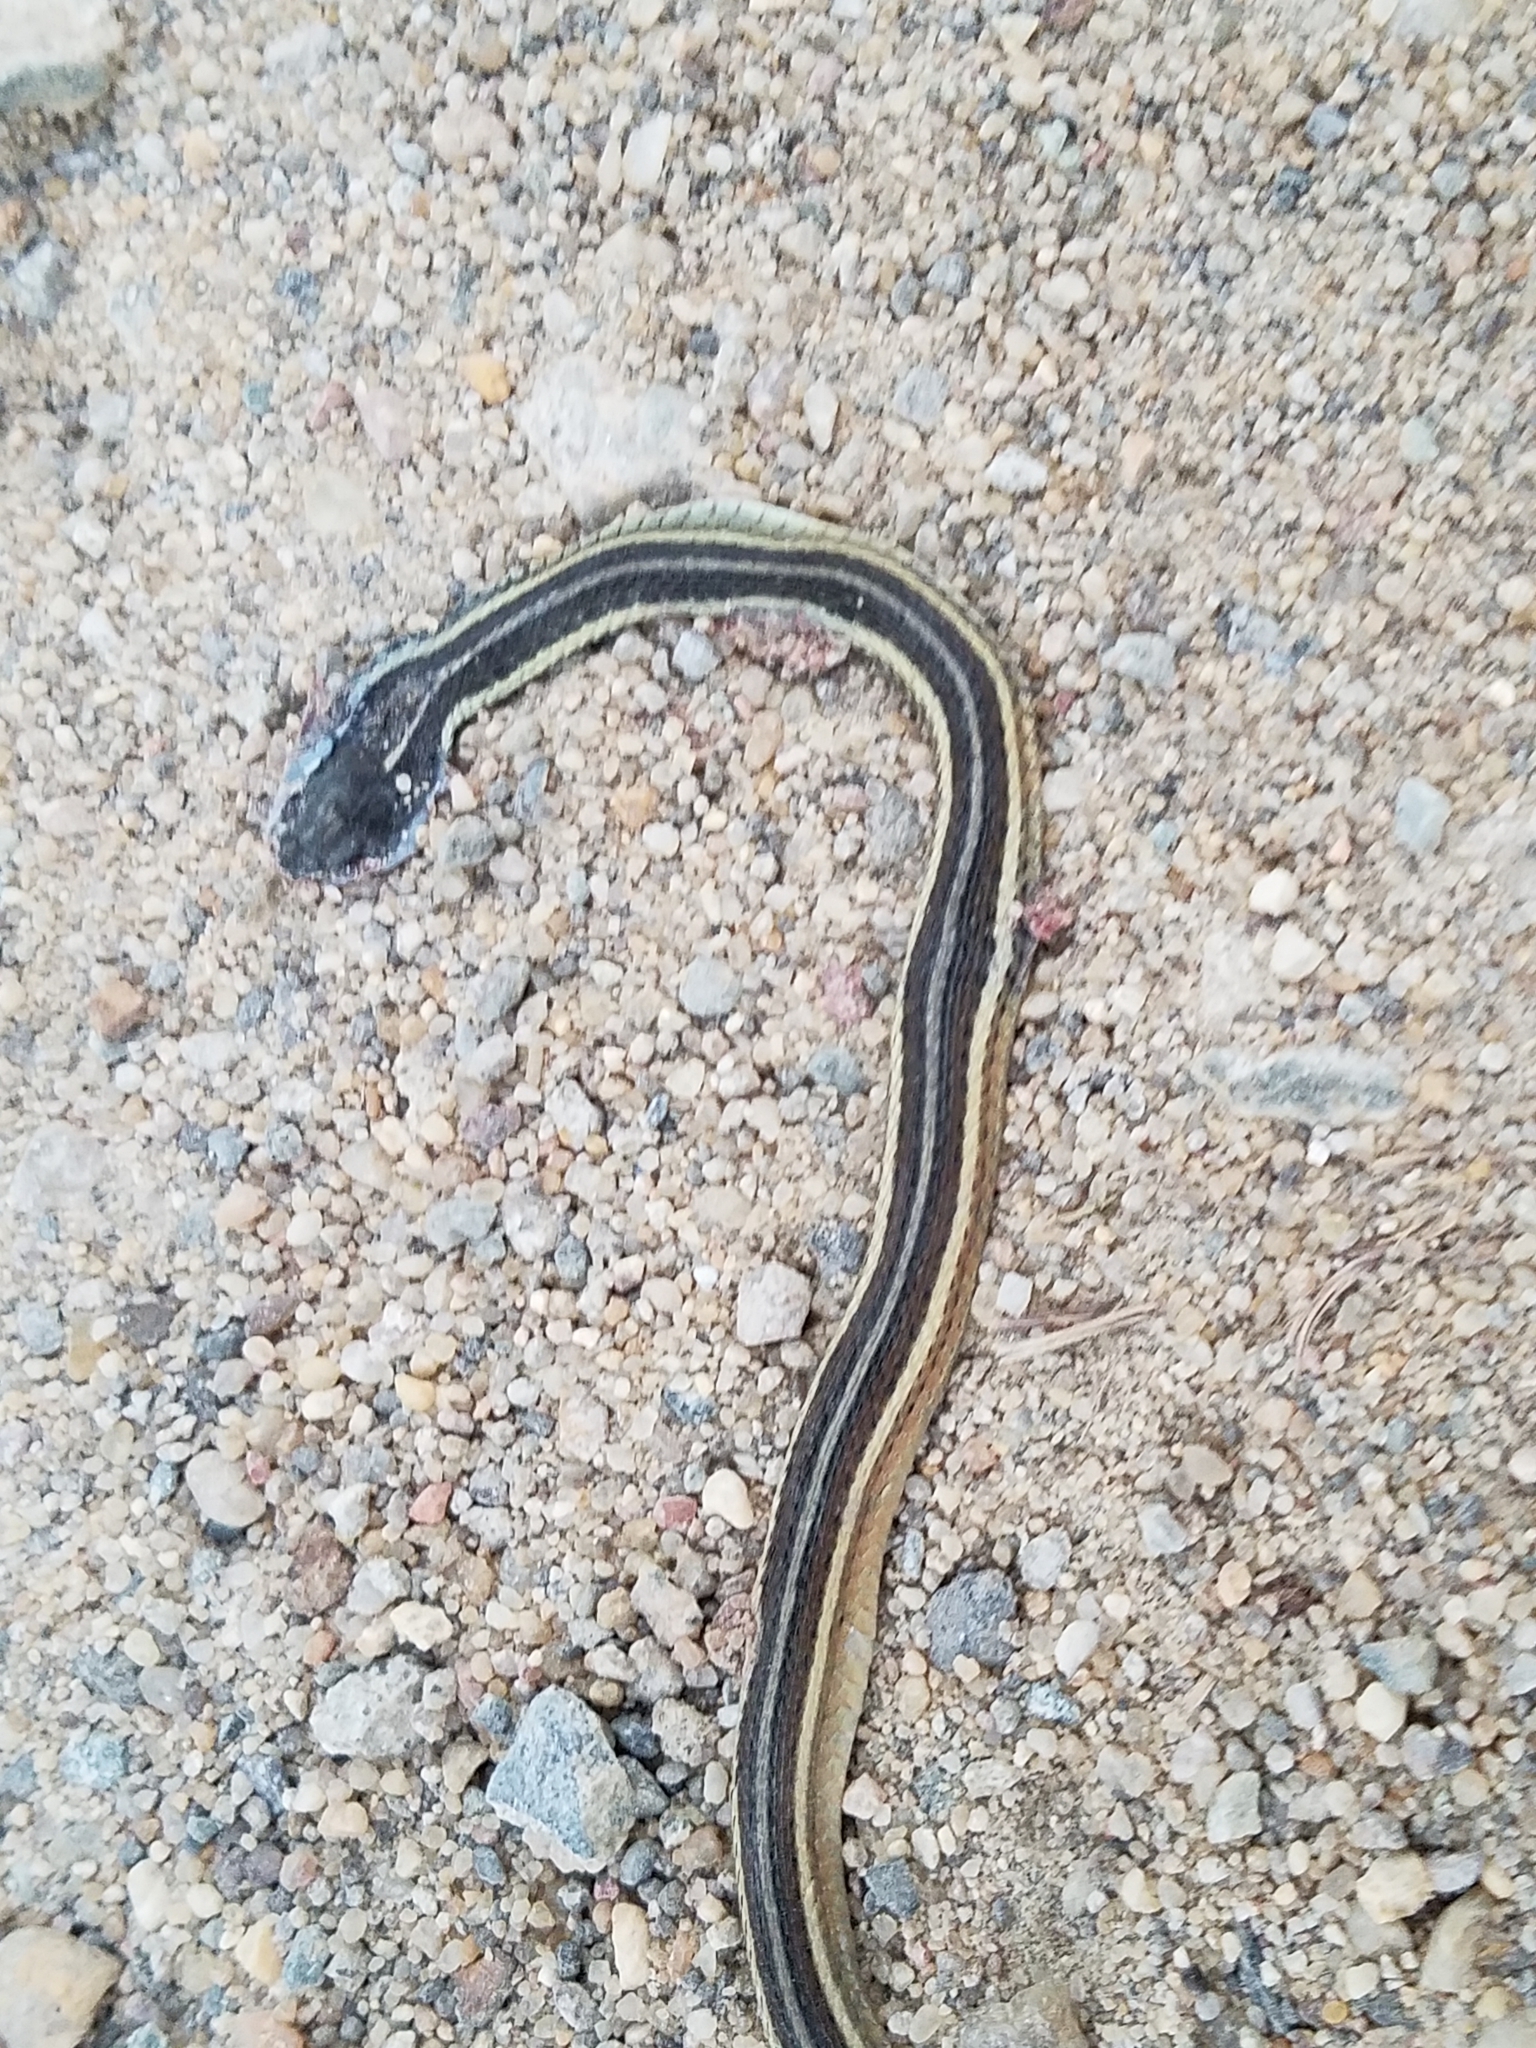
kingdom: Animalia
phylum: Chordata
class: Squamata
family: Colubridae
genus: Thamnophis
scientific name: Thamnophis sirtalis
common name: Common garter snake
